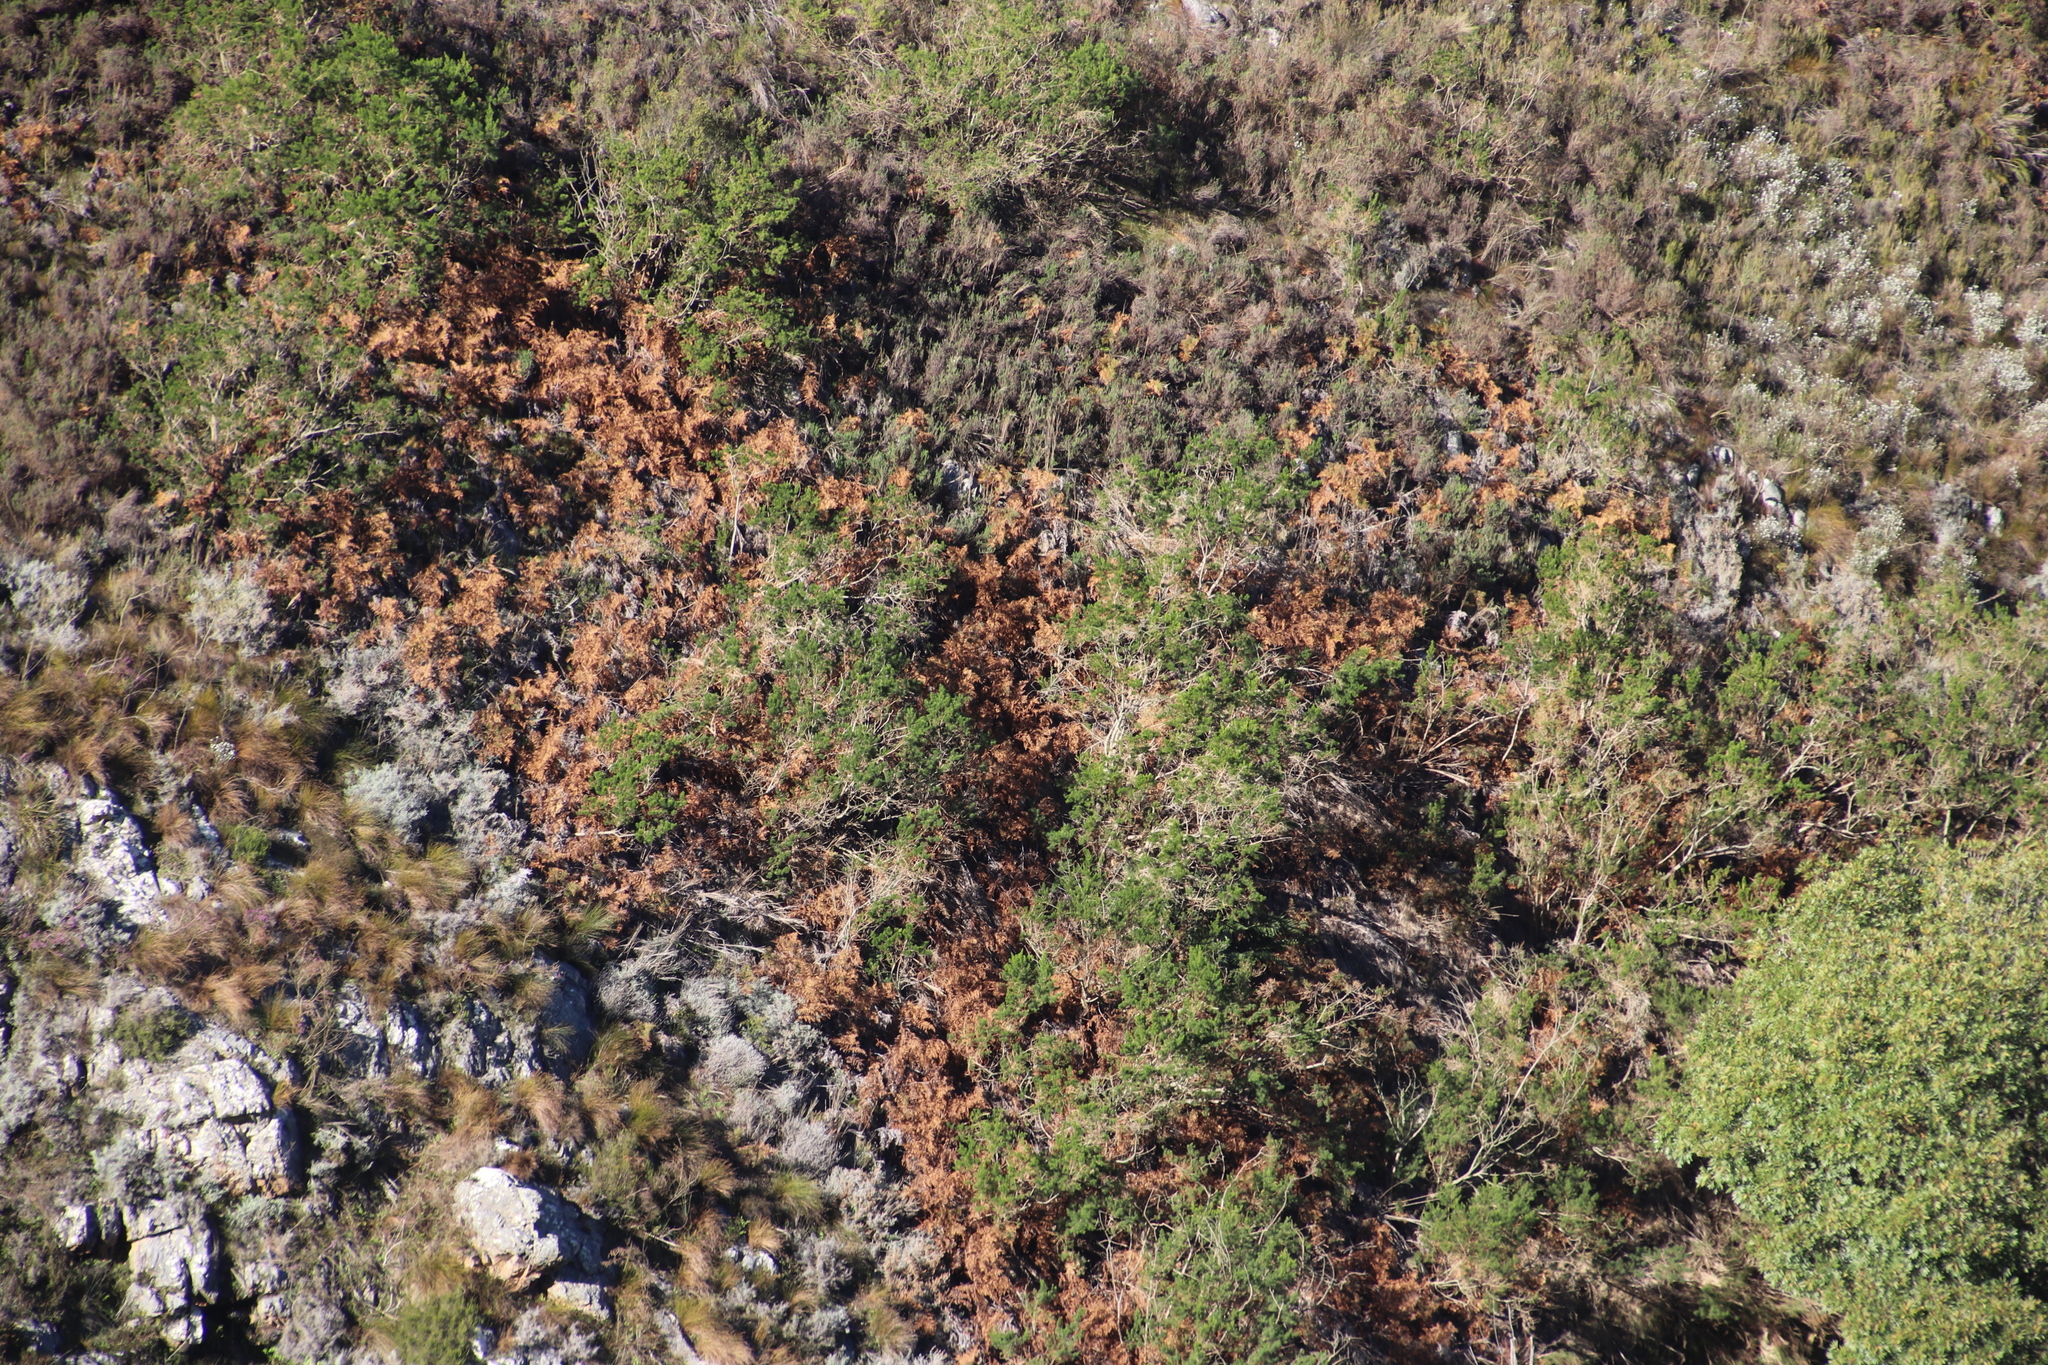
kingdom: Plantae
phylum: Tracheophyta
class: Polypodiopsida
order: Polypodiales
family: Dennstaedtiaceae
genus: Pteridium
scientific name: Pteridium aquilinum
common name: Bracken
